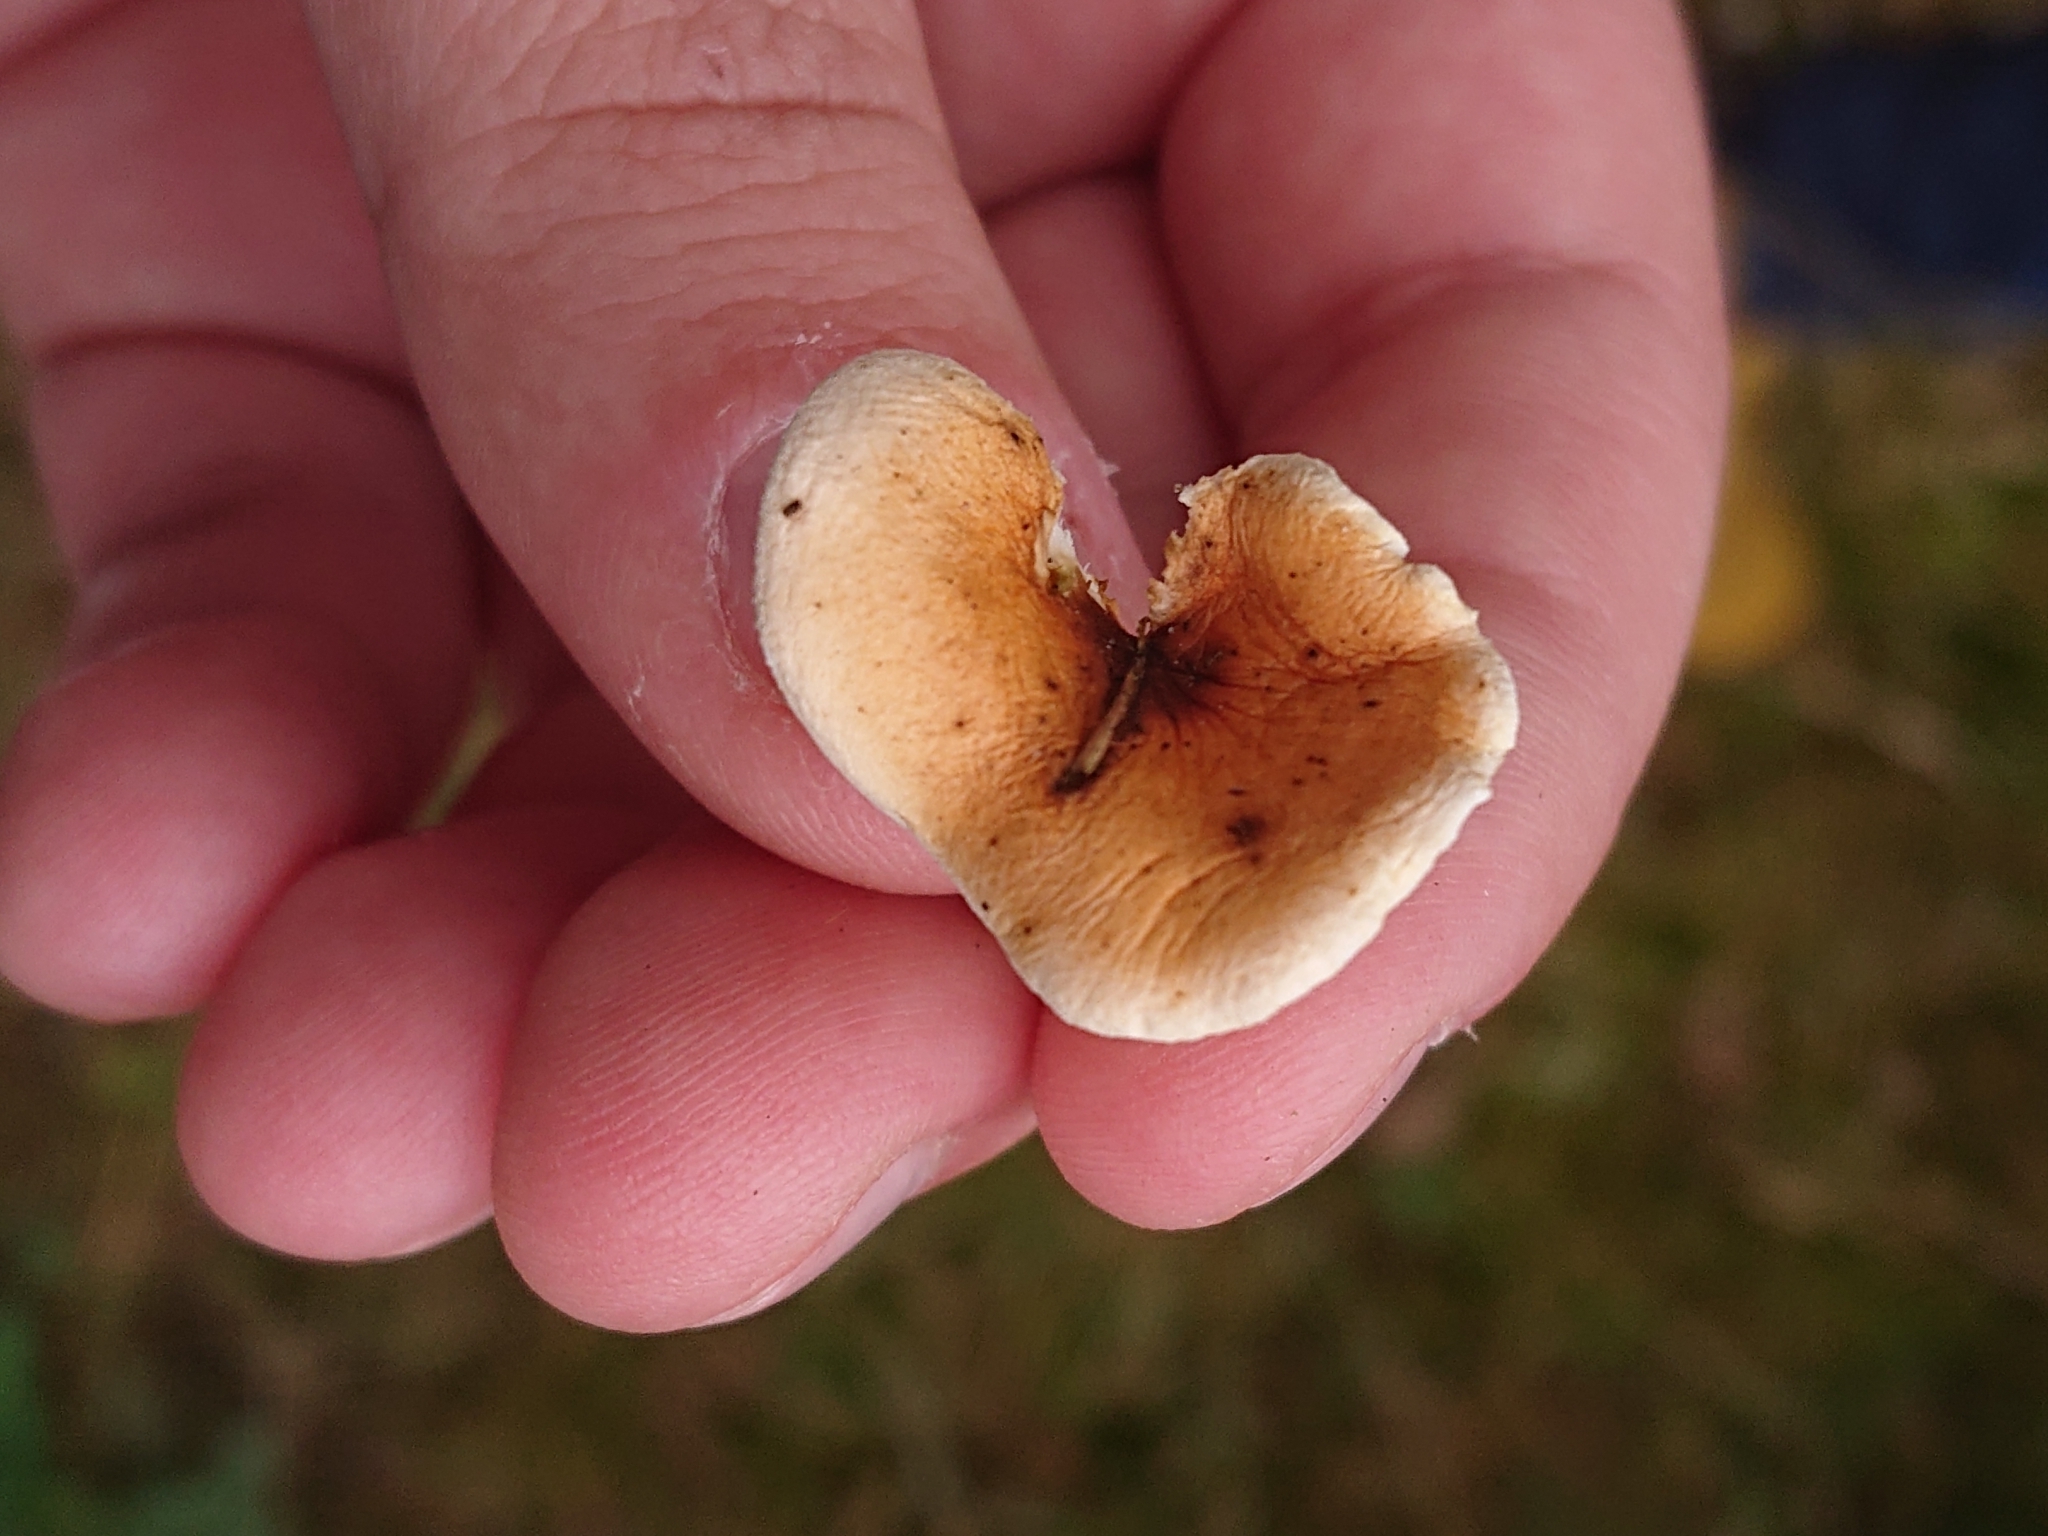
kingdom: Fungi
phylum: Basidiomycota
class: Agaricomycetes
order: Boletales
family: Hygrophoropsidaceae
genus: Hygrophoropsis
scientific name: Hygrophoropsis aurantiaca
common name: False chanterelle
